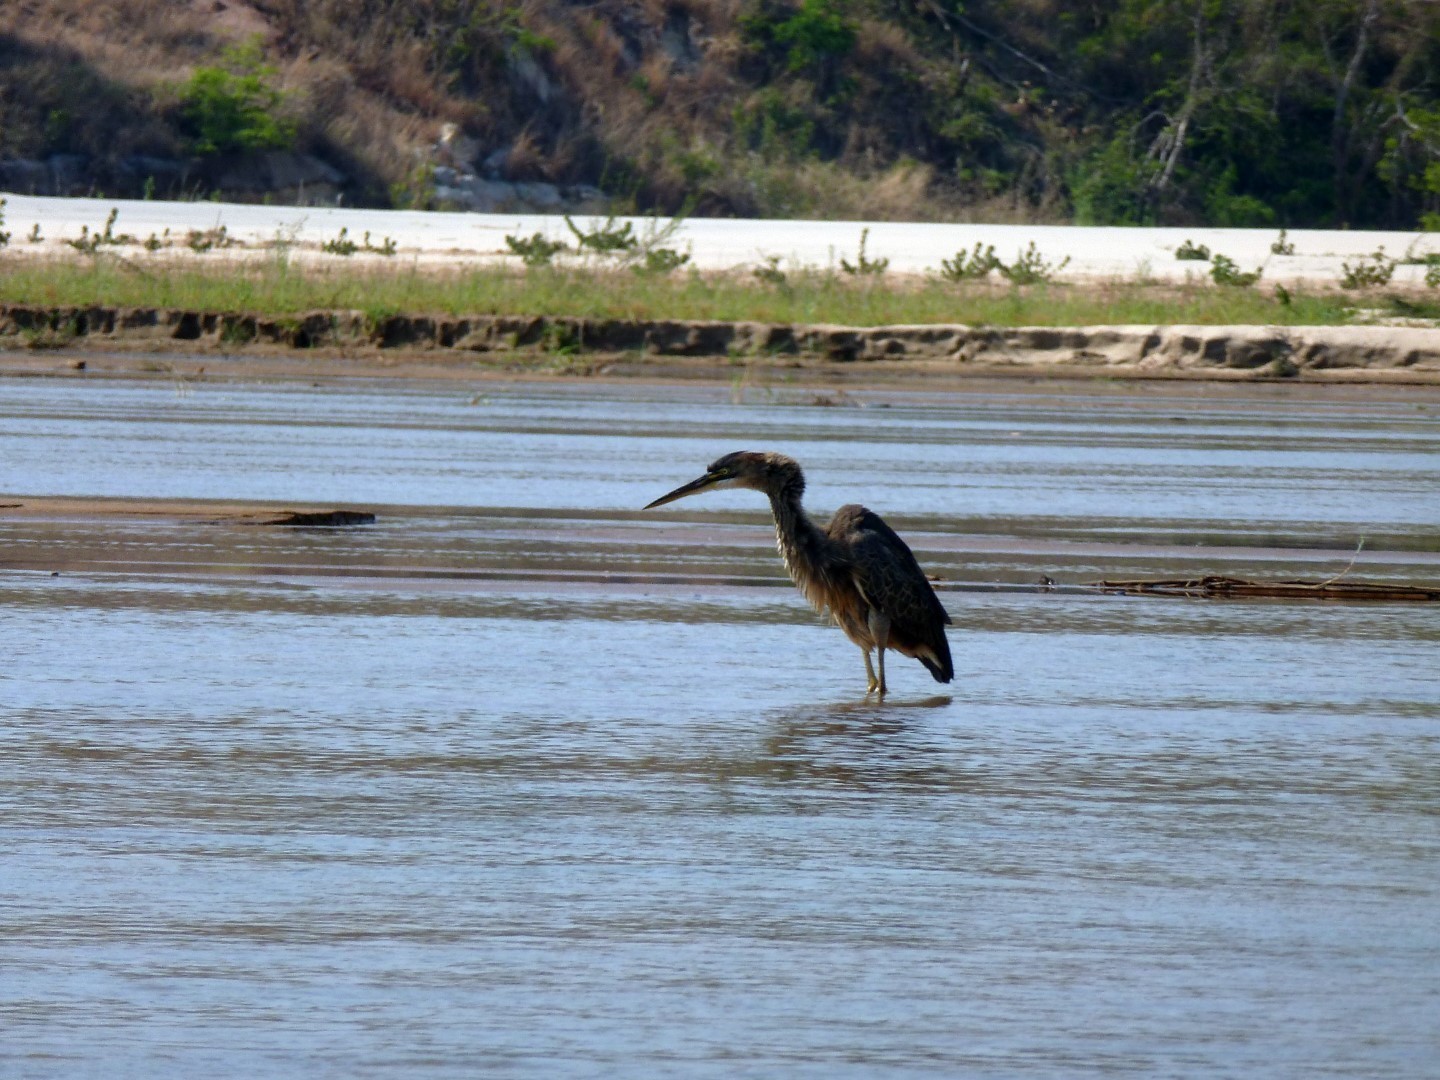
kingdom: Animalia
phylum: Chordata
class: Aves
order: Pelecaniformes
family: Ardeidae
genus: Ardea
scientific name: Ardea goliath
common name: Goliath heron
